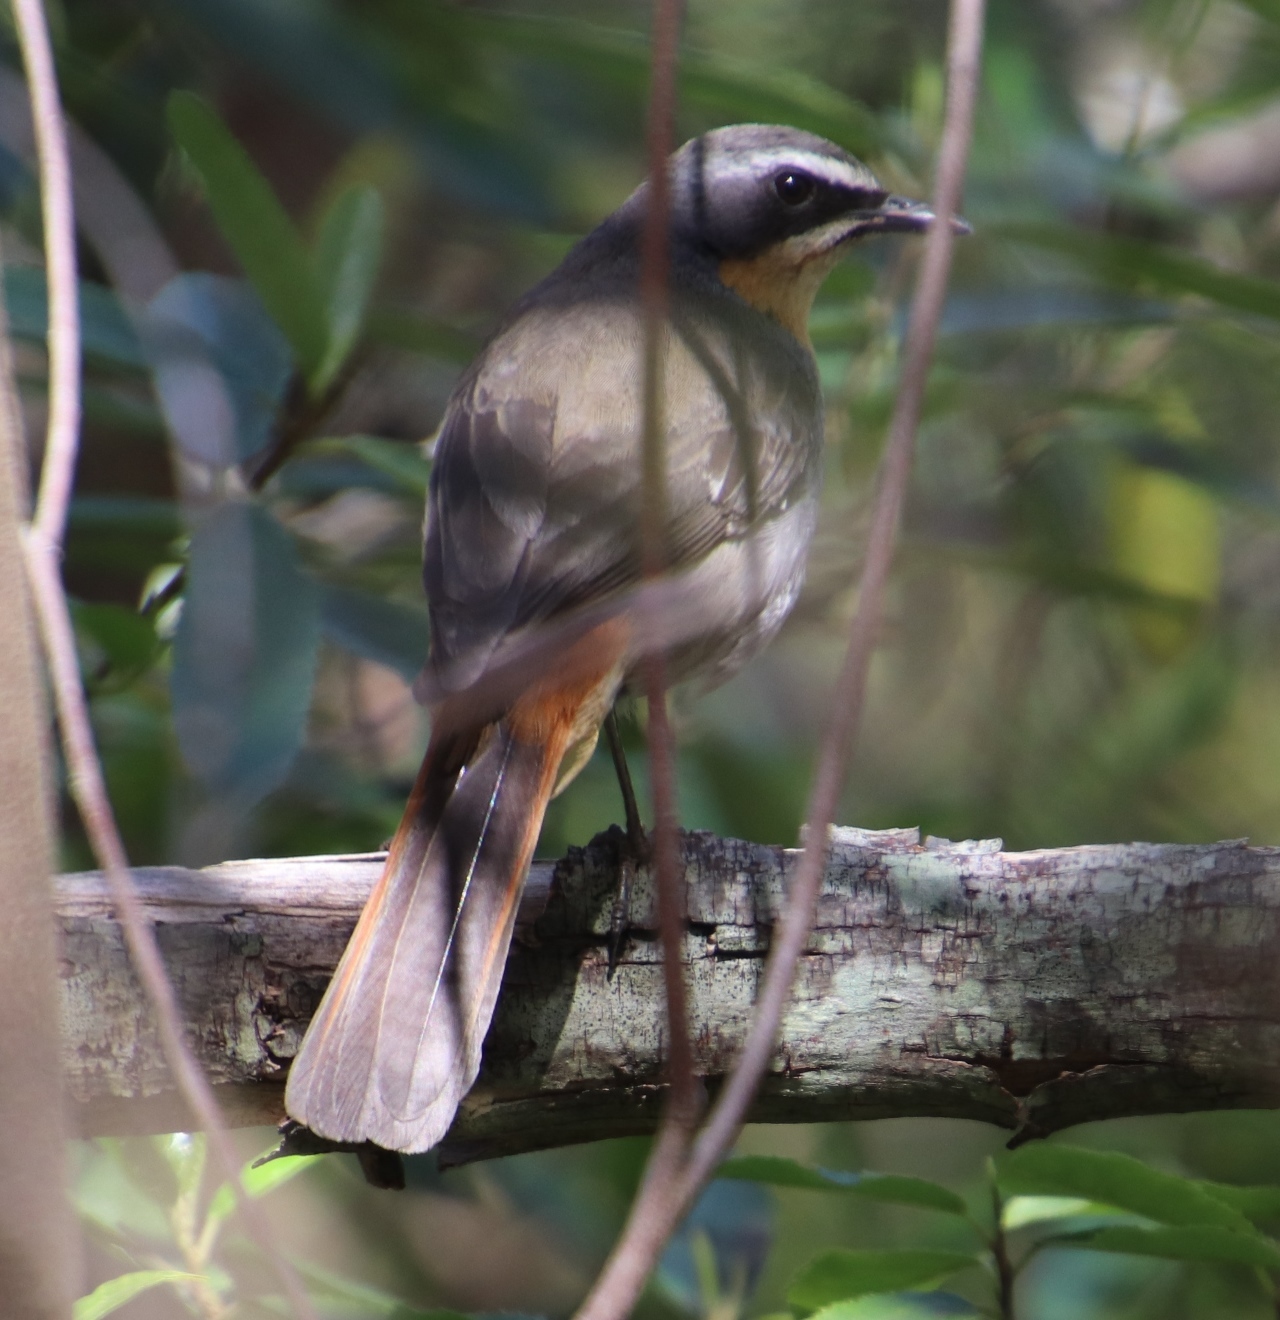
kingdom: Animalia
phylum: Chordata
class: Aves
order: Passeriformes
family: Muscicapidae
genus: Cossypha
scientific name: Cossypha caffra
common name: Cape robin-chat
